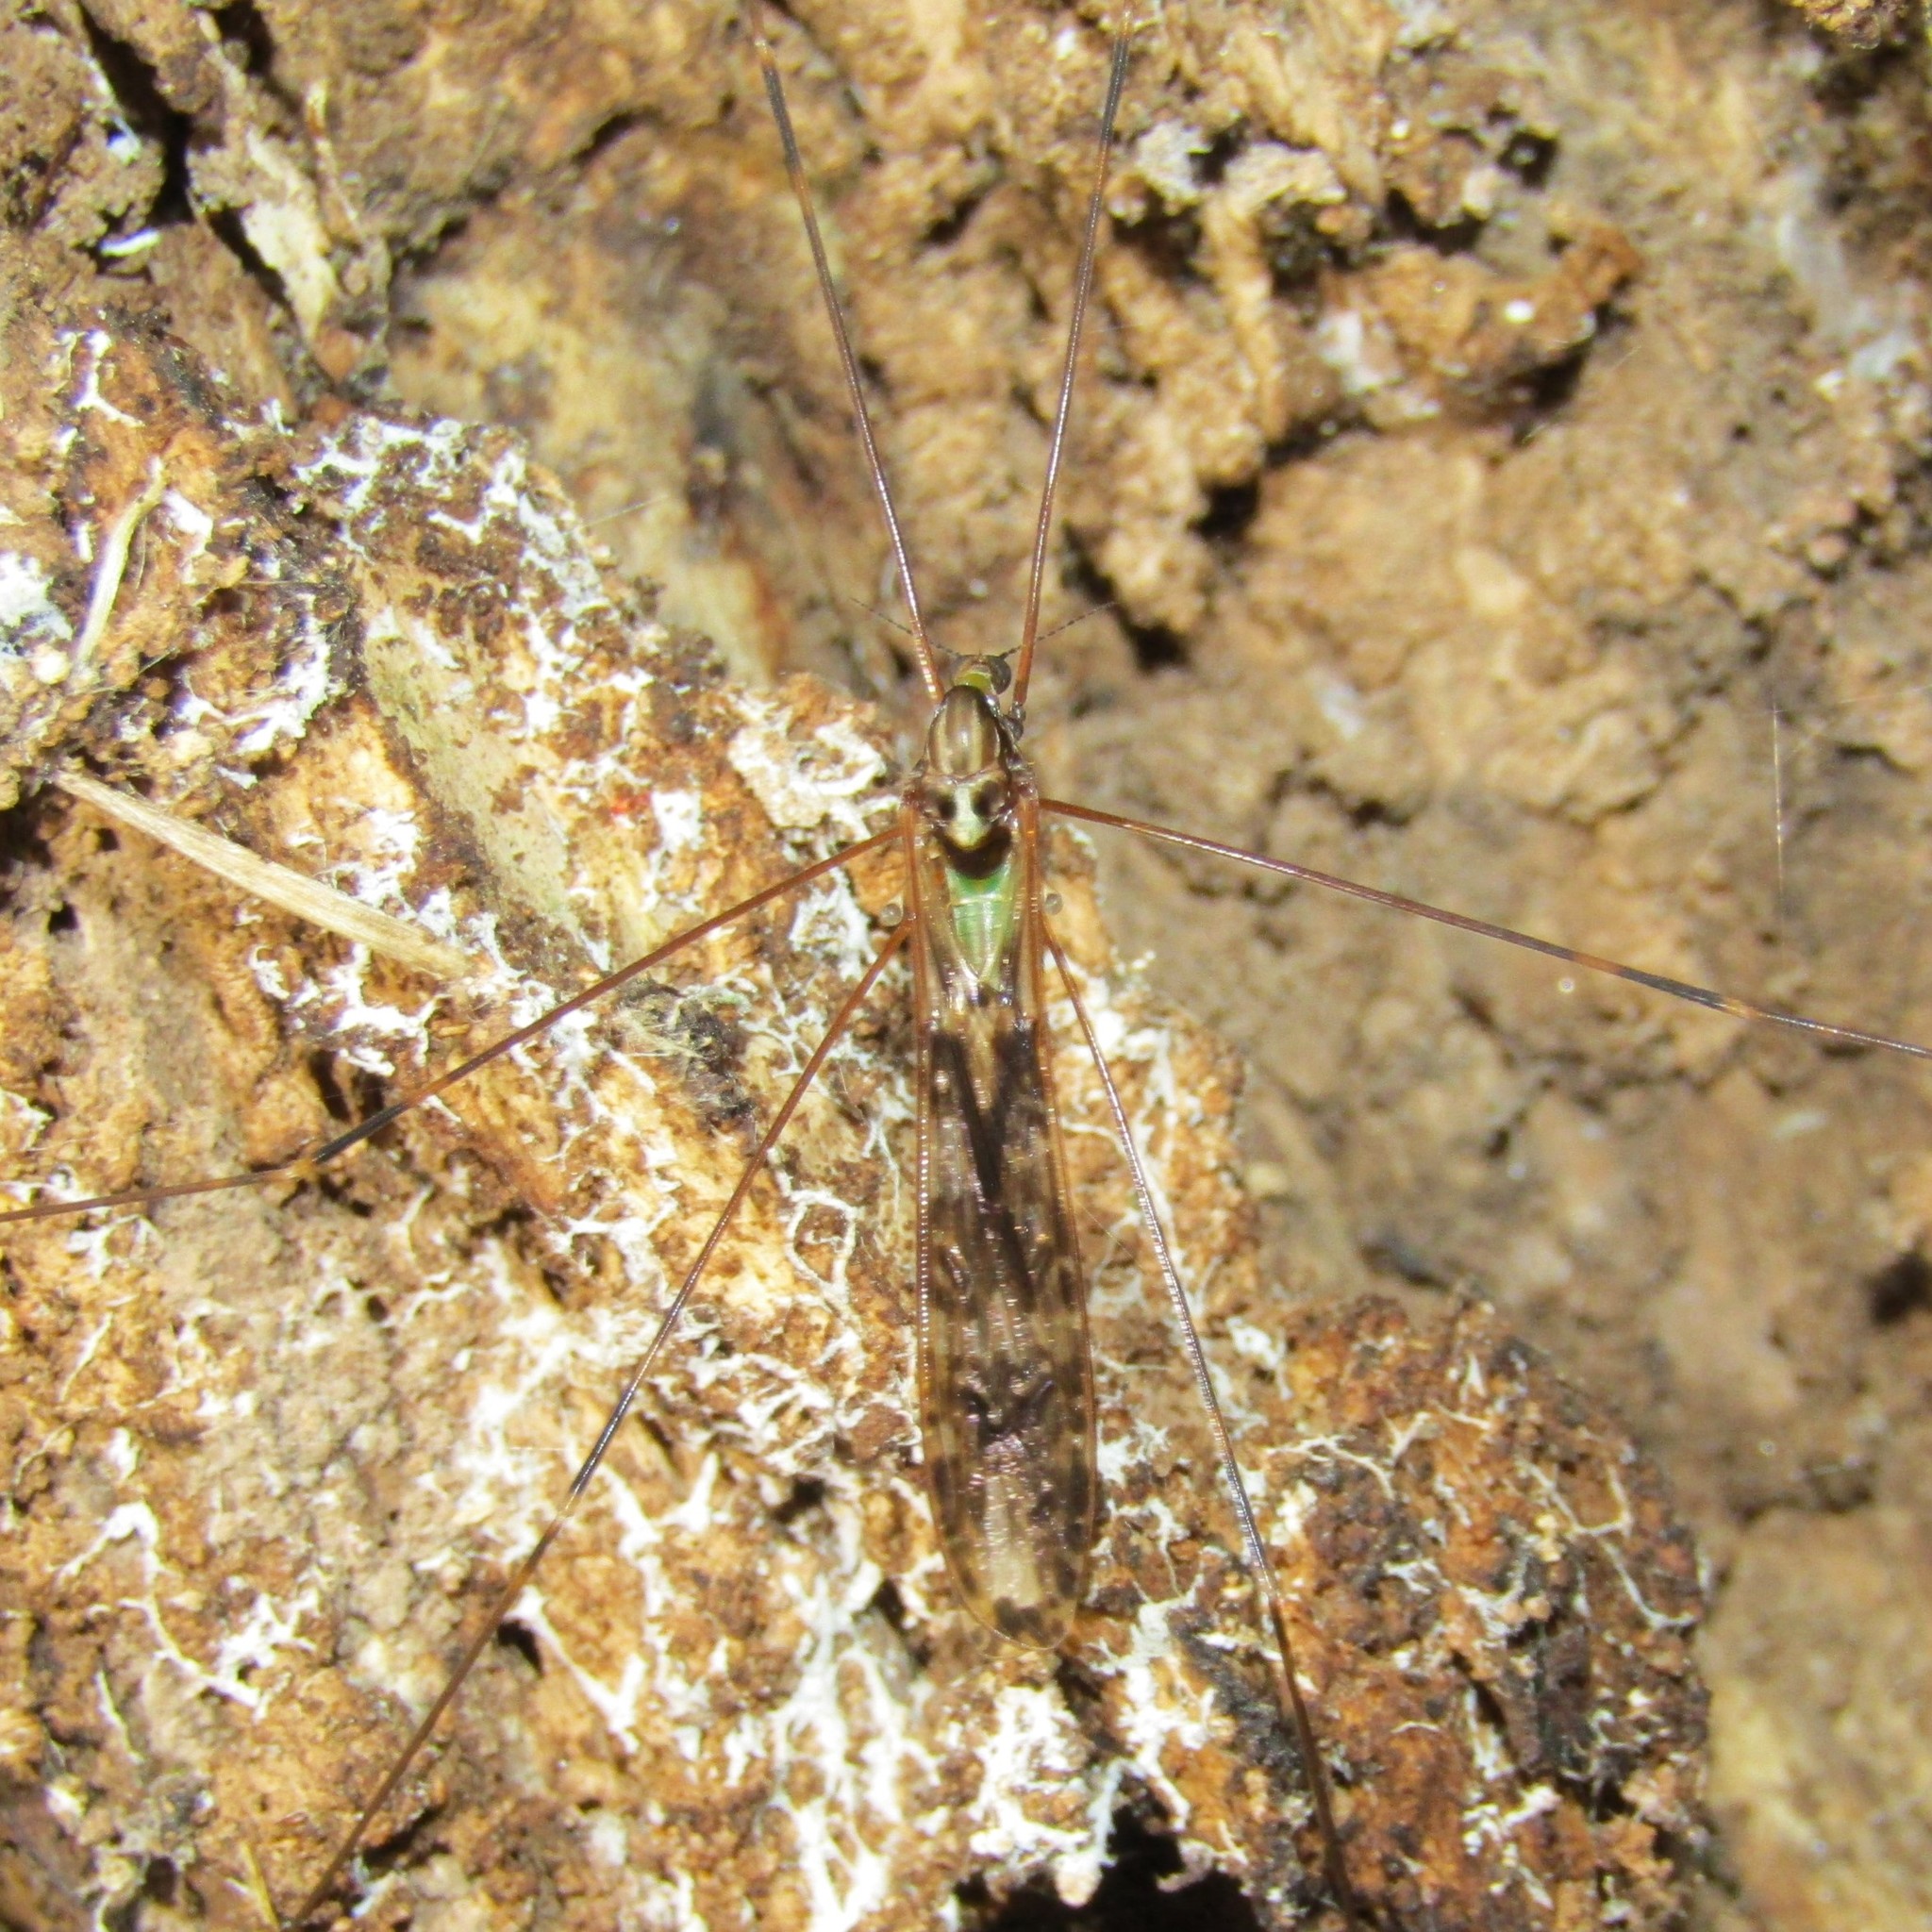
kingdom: Animalia
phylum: Arthropoda
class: Insecta
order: Diptera
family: Limoniidae
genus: Discobola
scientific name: Discobola dohrni
